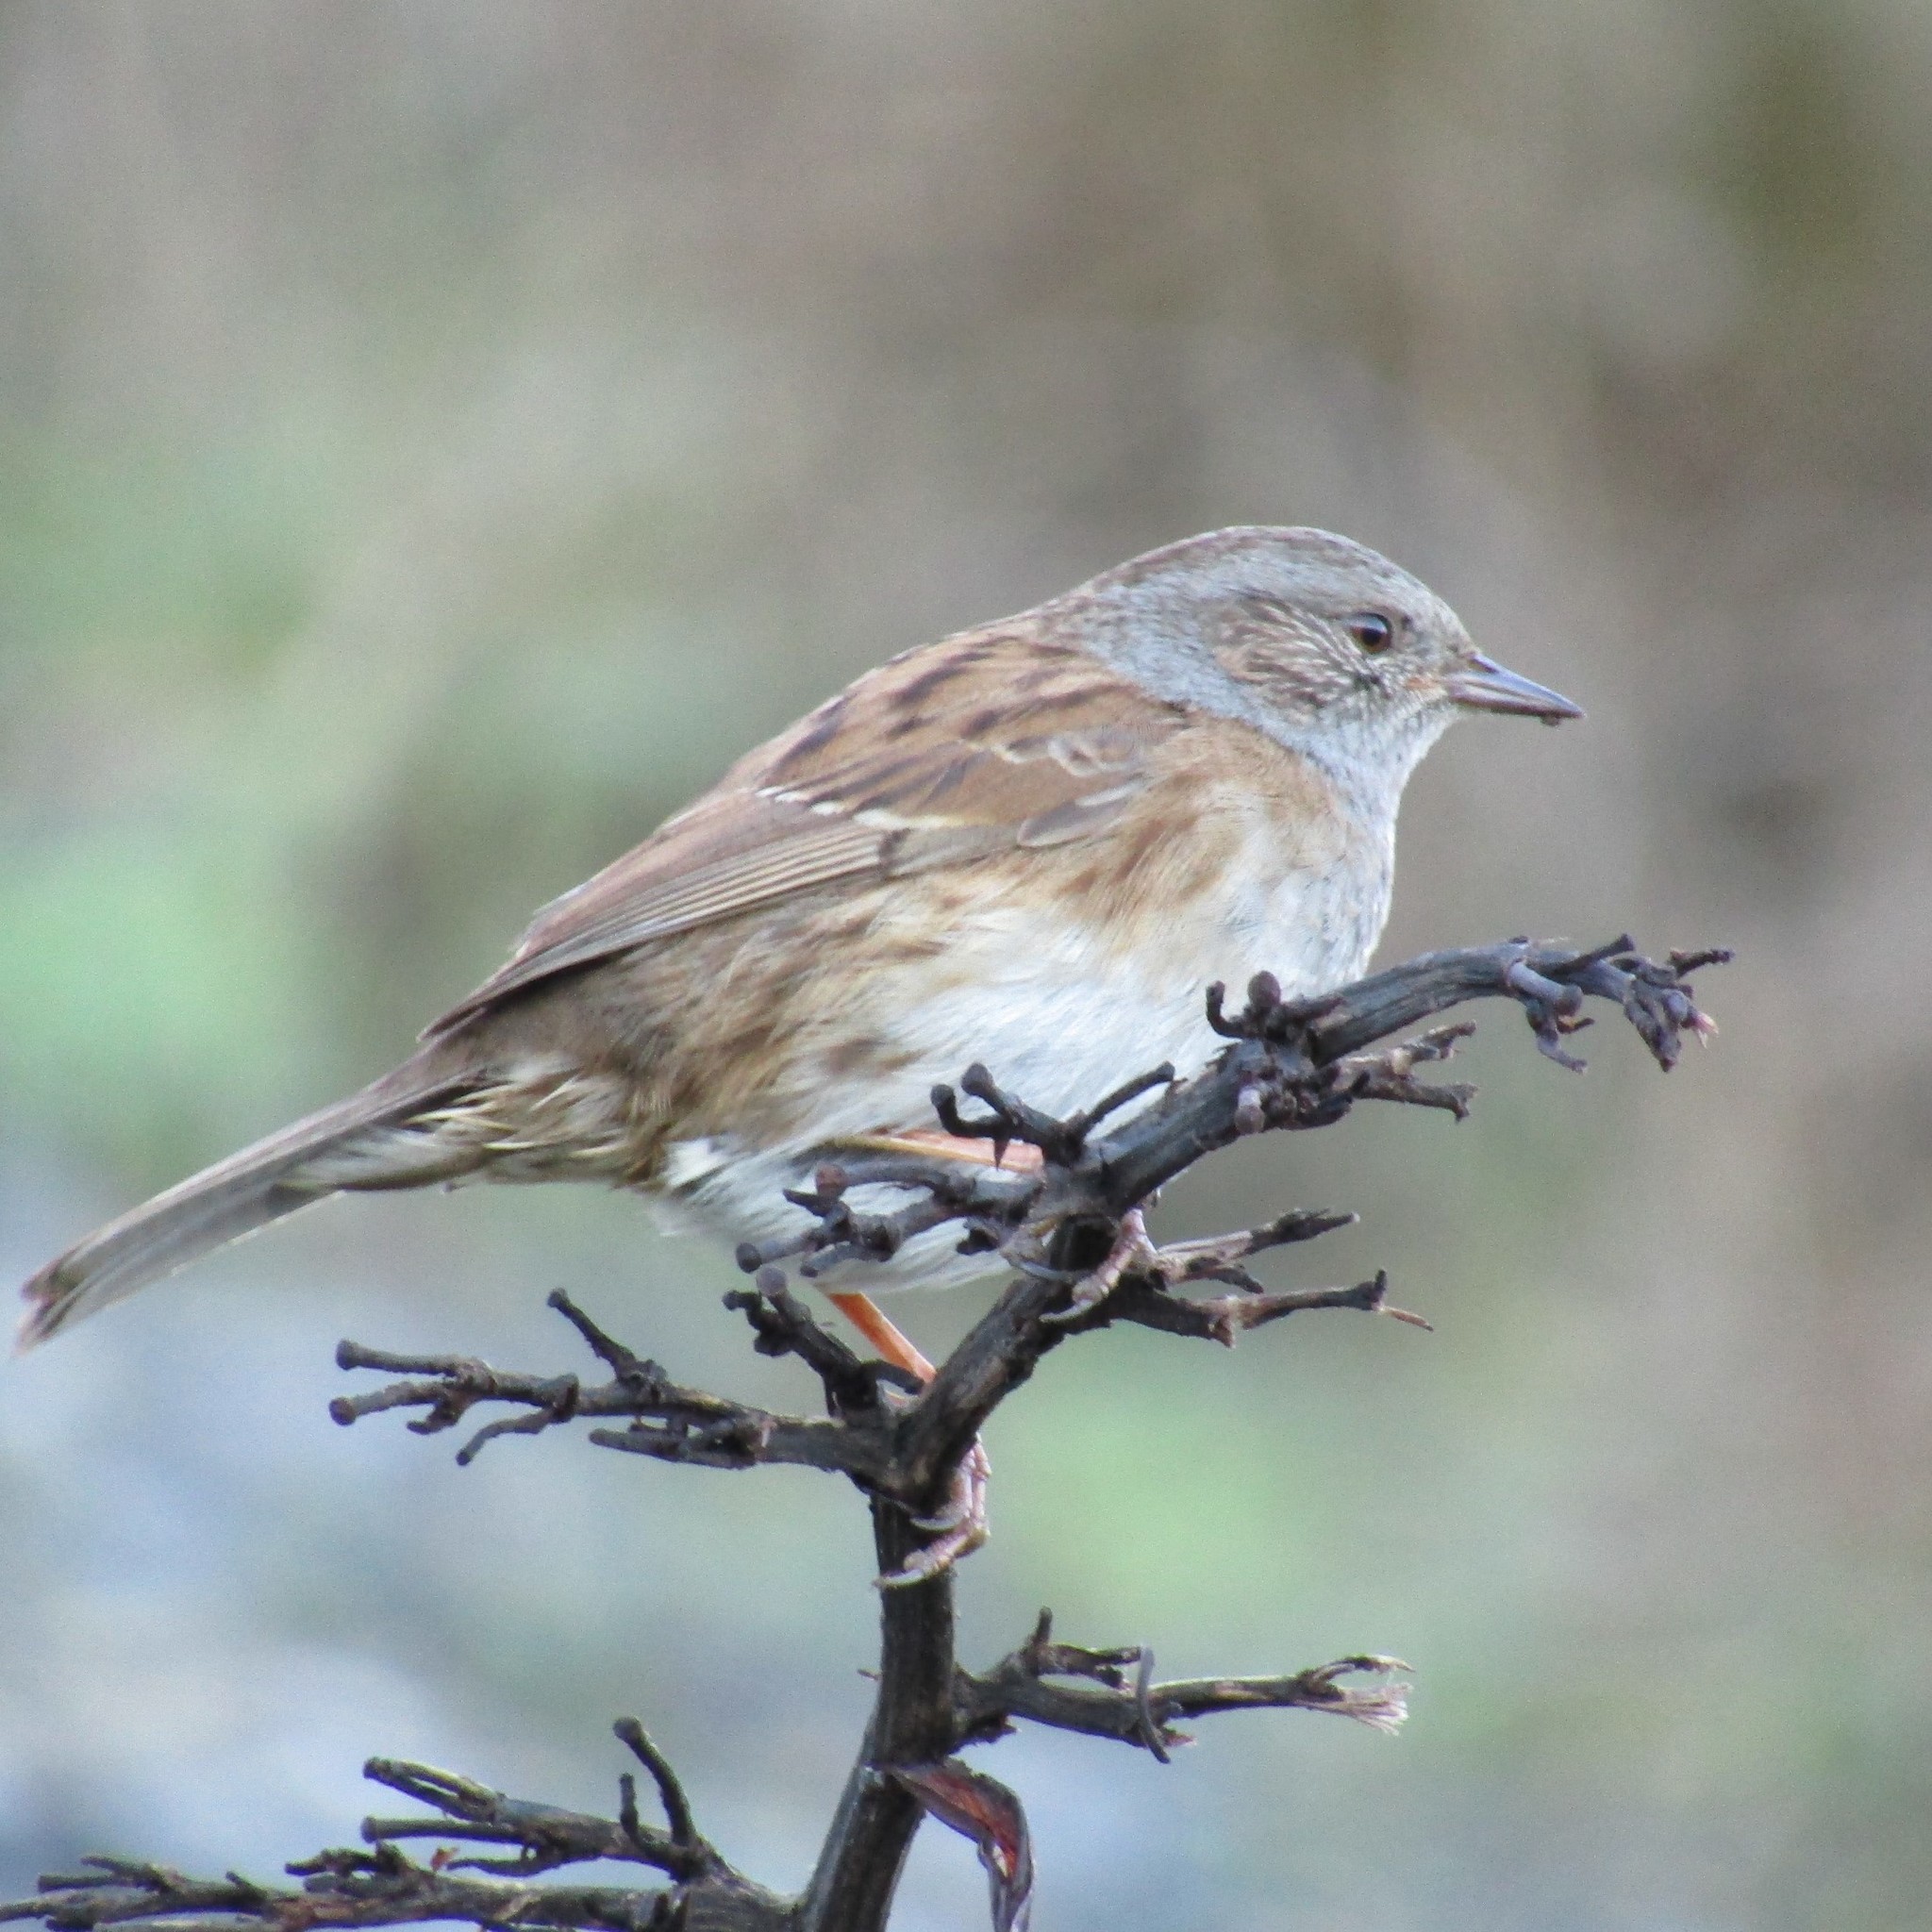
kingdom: Animalia
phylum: Chordata
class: Aves
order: Passeriformes
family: Prunellidae
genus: Prunella
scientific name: Prunella modularis
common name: Dunnock
